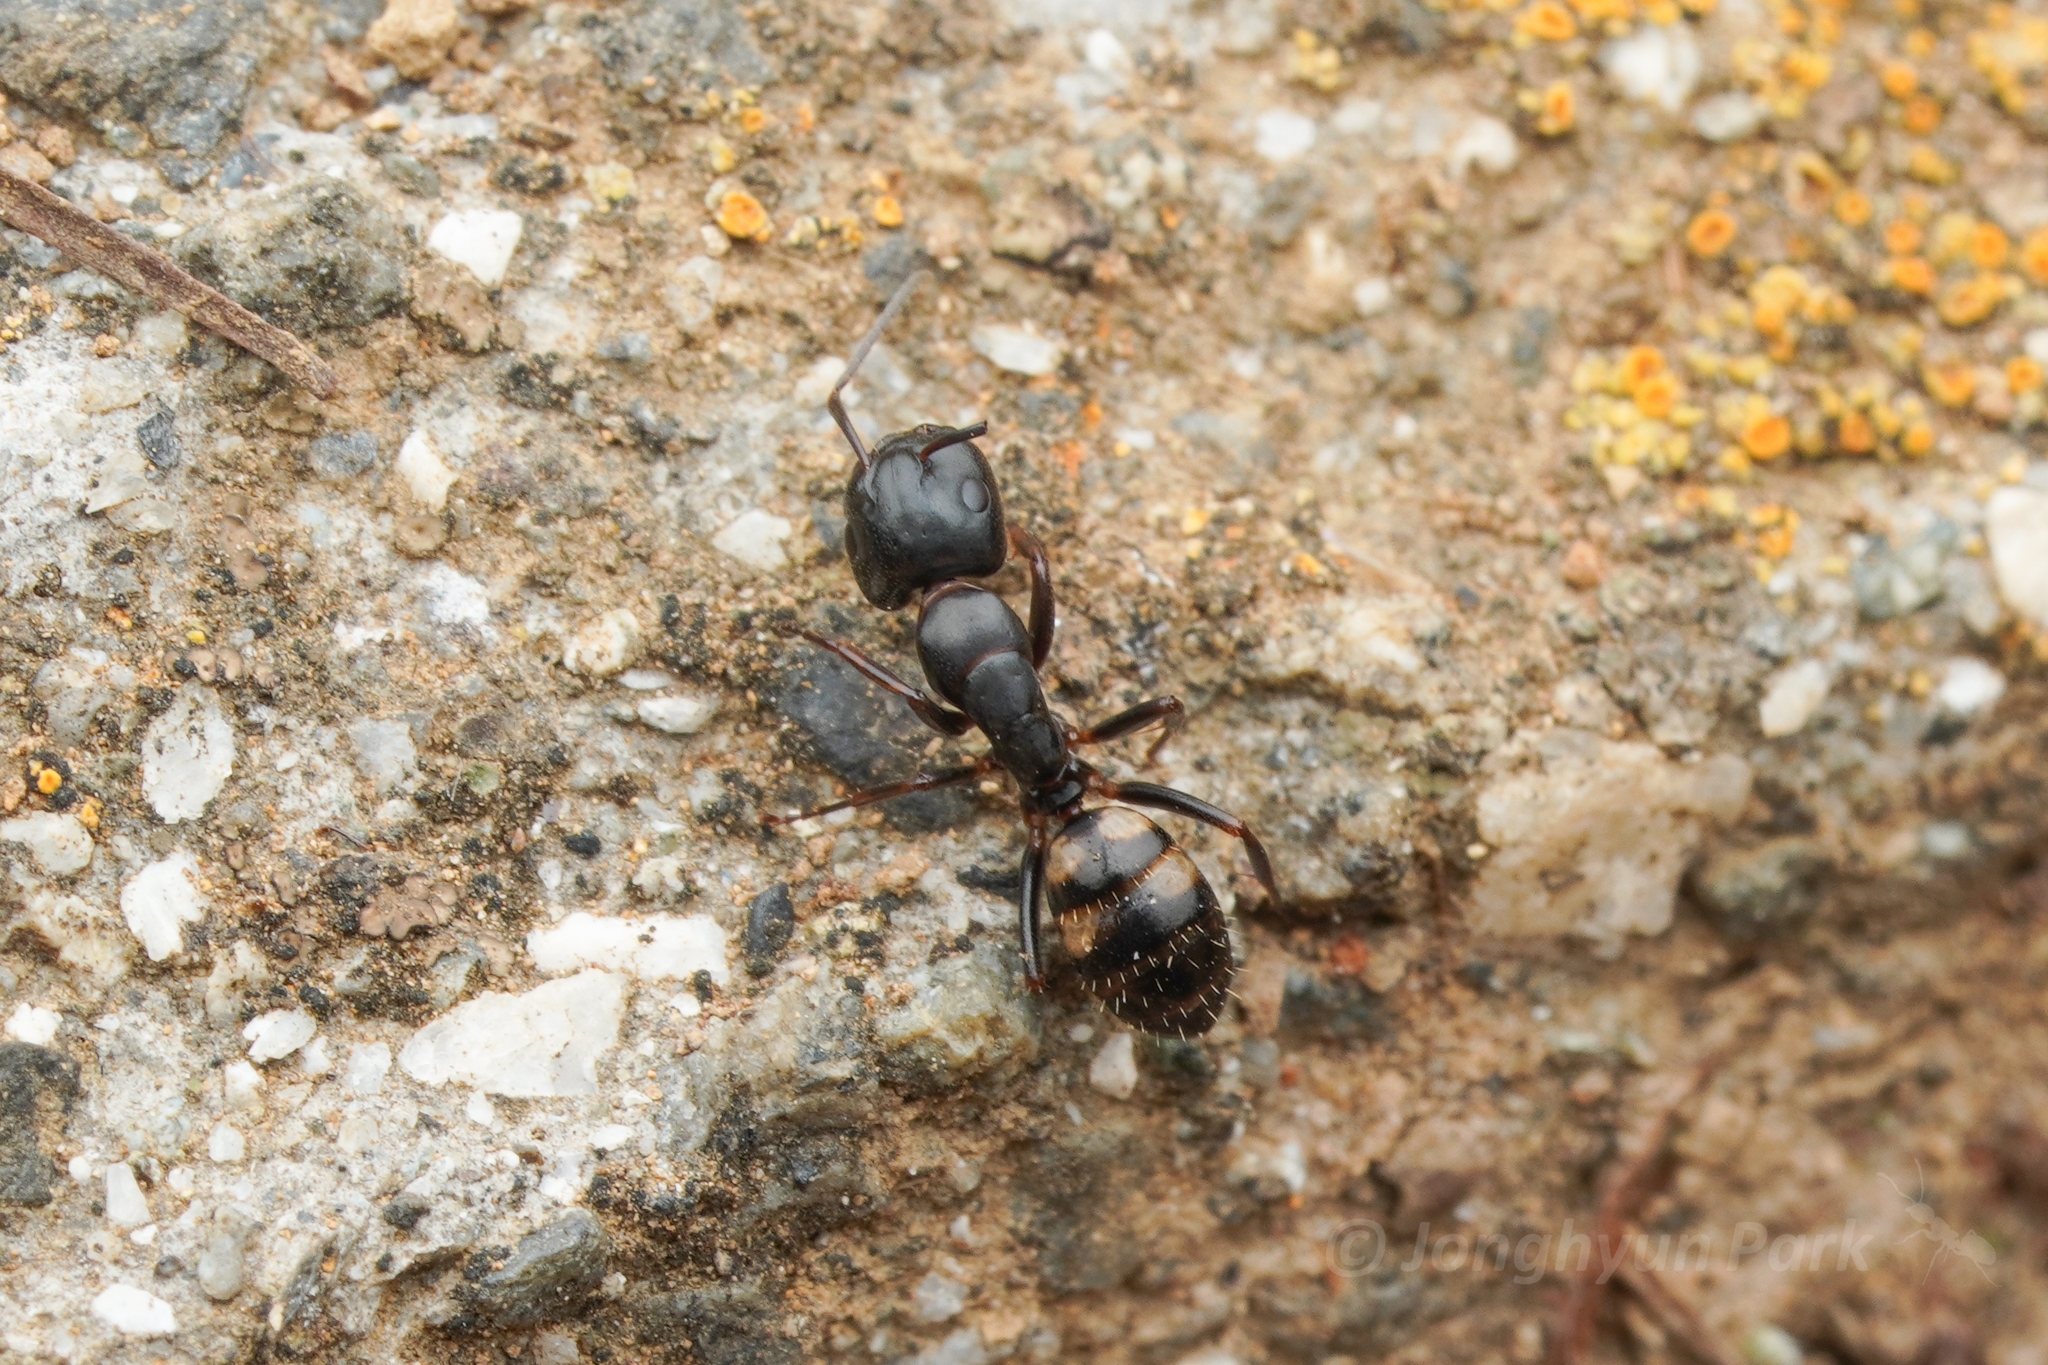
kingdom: Animalia
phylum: Arthropoda
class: Insecta
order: Hymenoptera
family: Formicidae
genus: Camponotus
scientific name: Camponotus quadrinotatus
